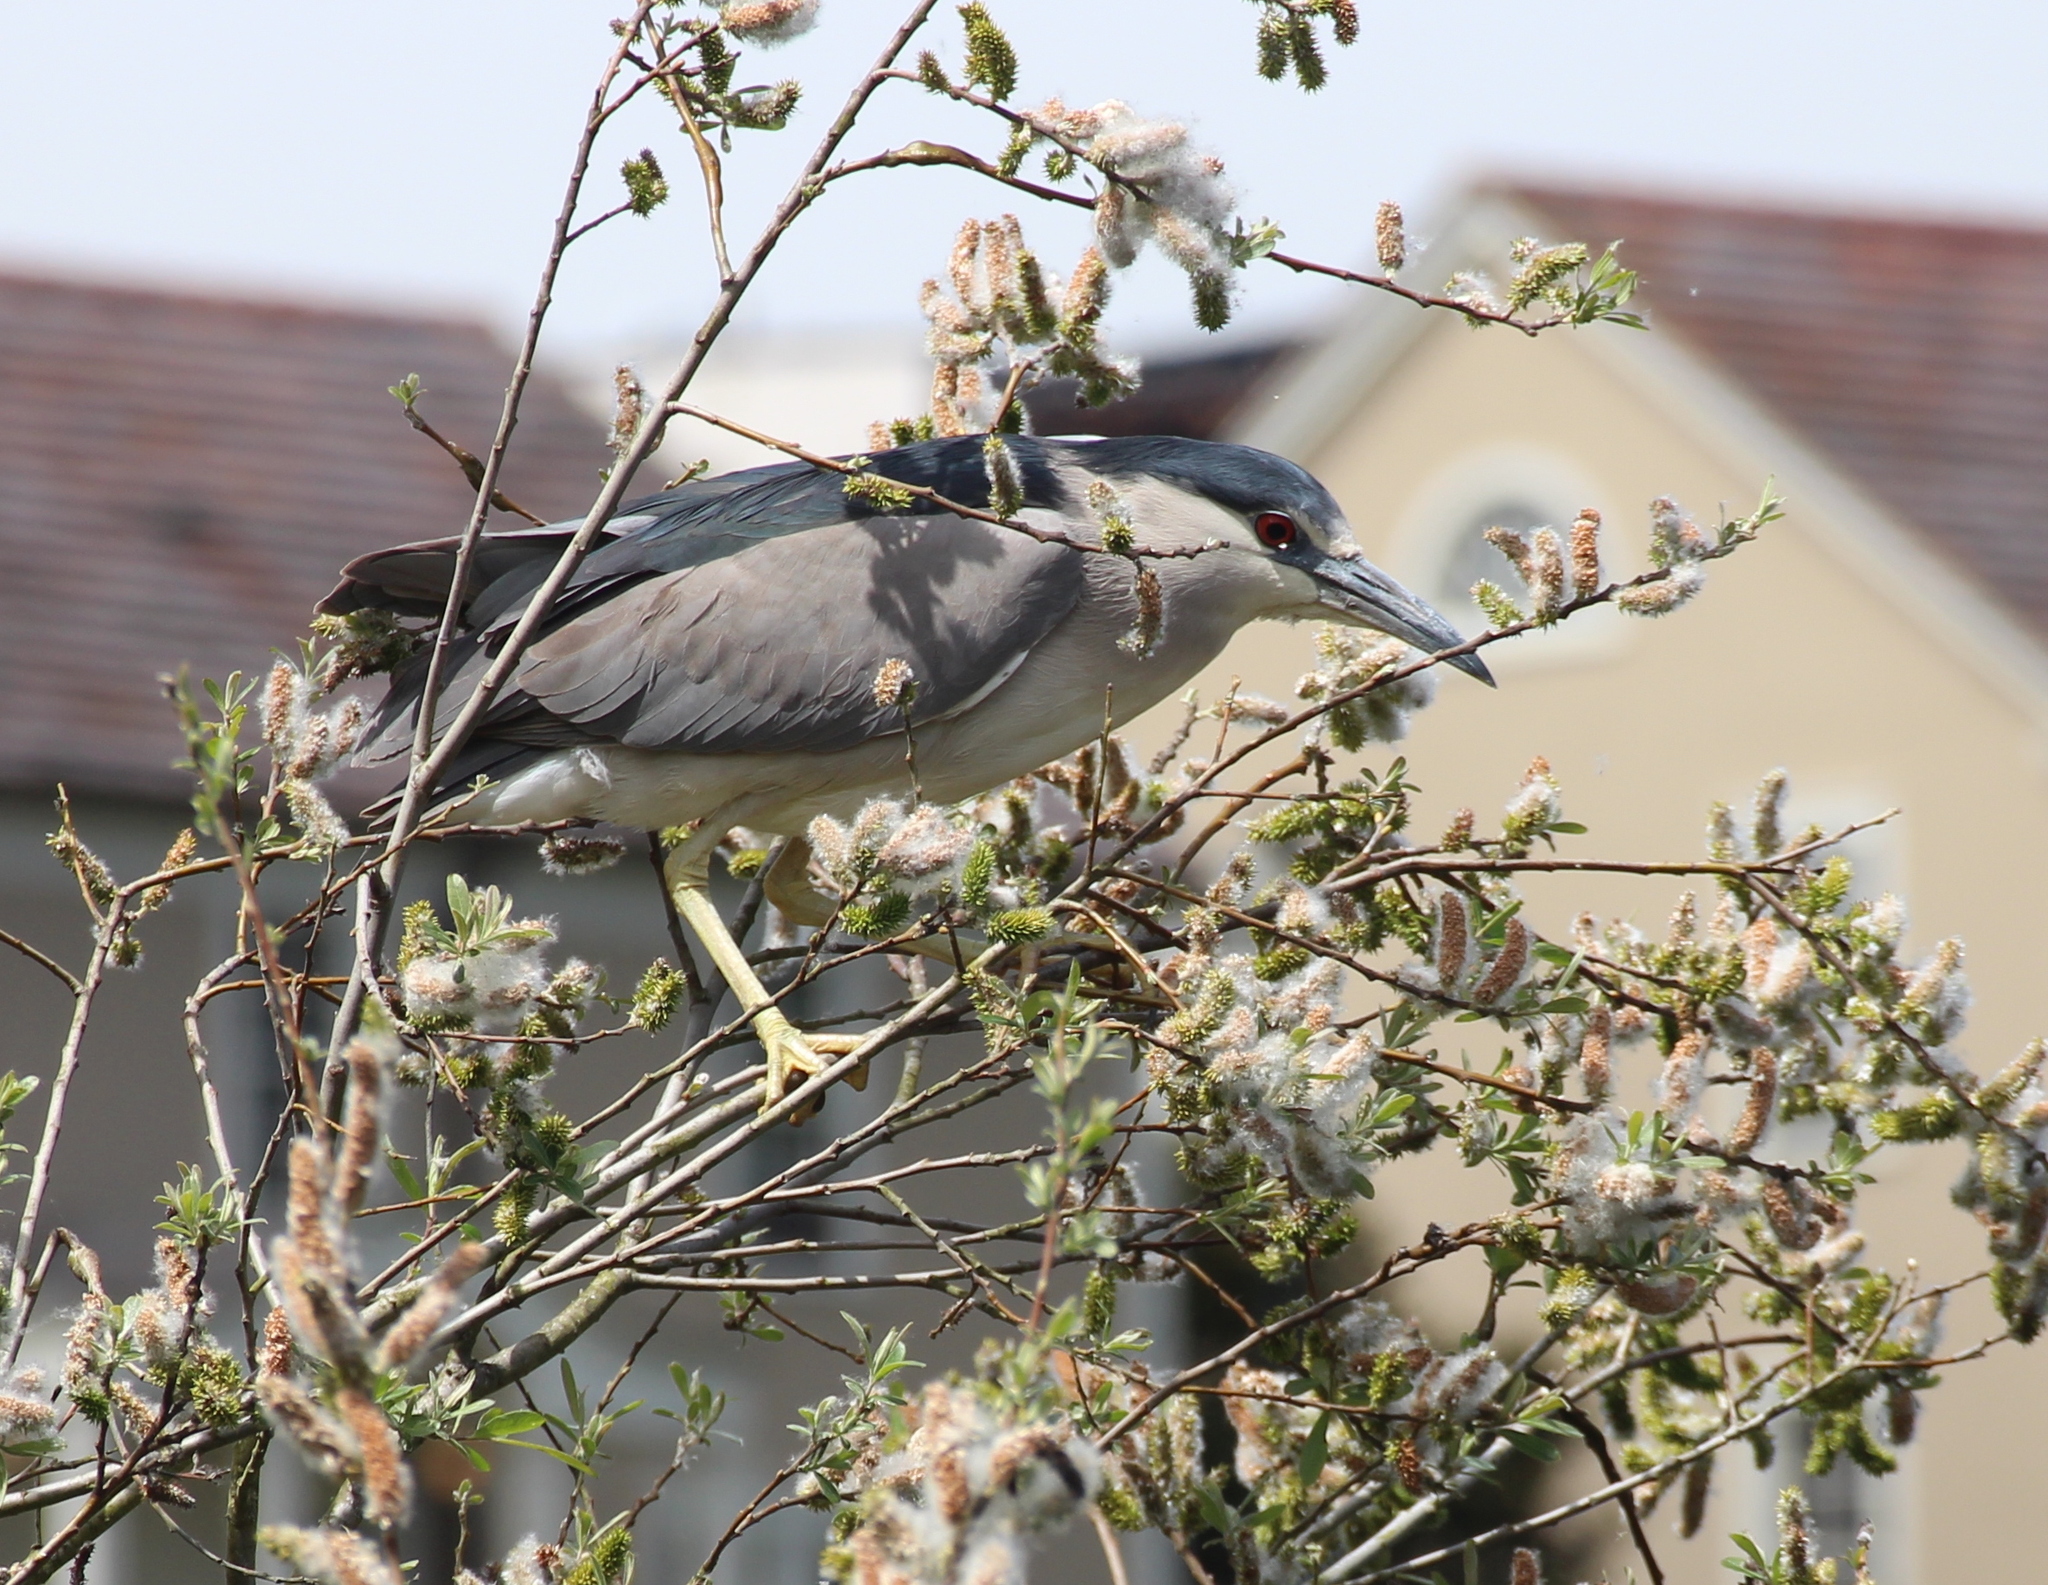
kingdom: Animalia
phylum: Chordata
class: Aves
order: Pelecaniformes
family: Ardeidae
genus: Nycticorax
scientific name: Nycticorax nycticorax
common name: Black-crowned night heron
